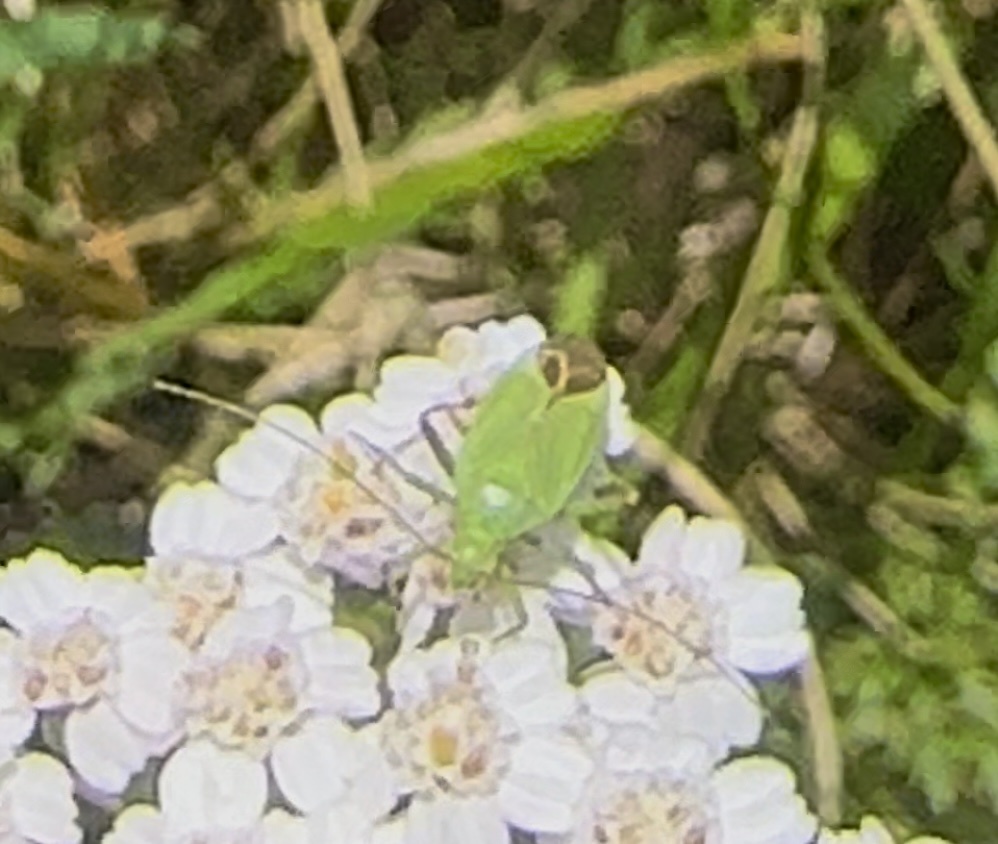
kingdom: Animalia
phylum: Arthropoda
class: Insecta
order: Hemiptera
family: Miridae
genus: Calocoris
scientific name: Calocoris affinis
